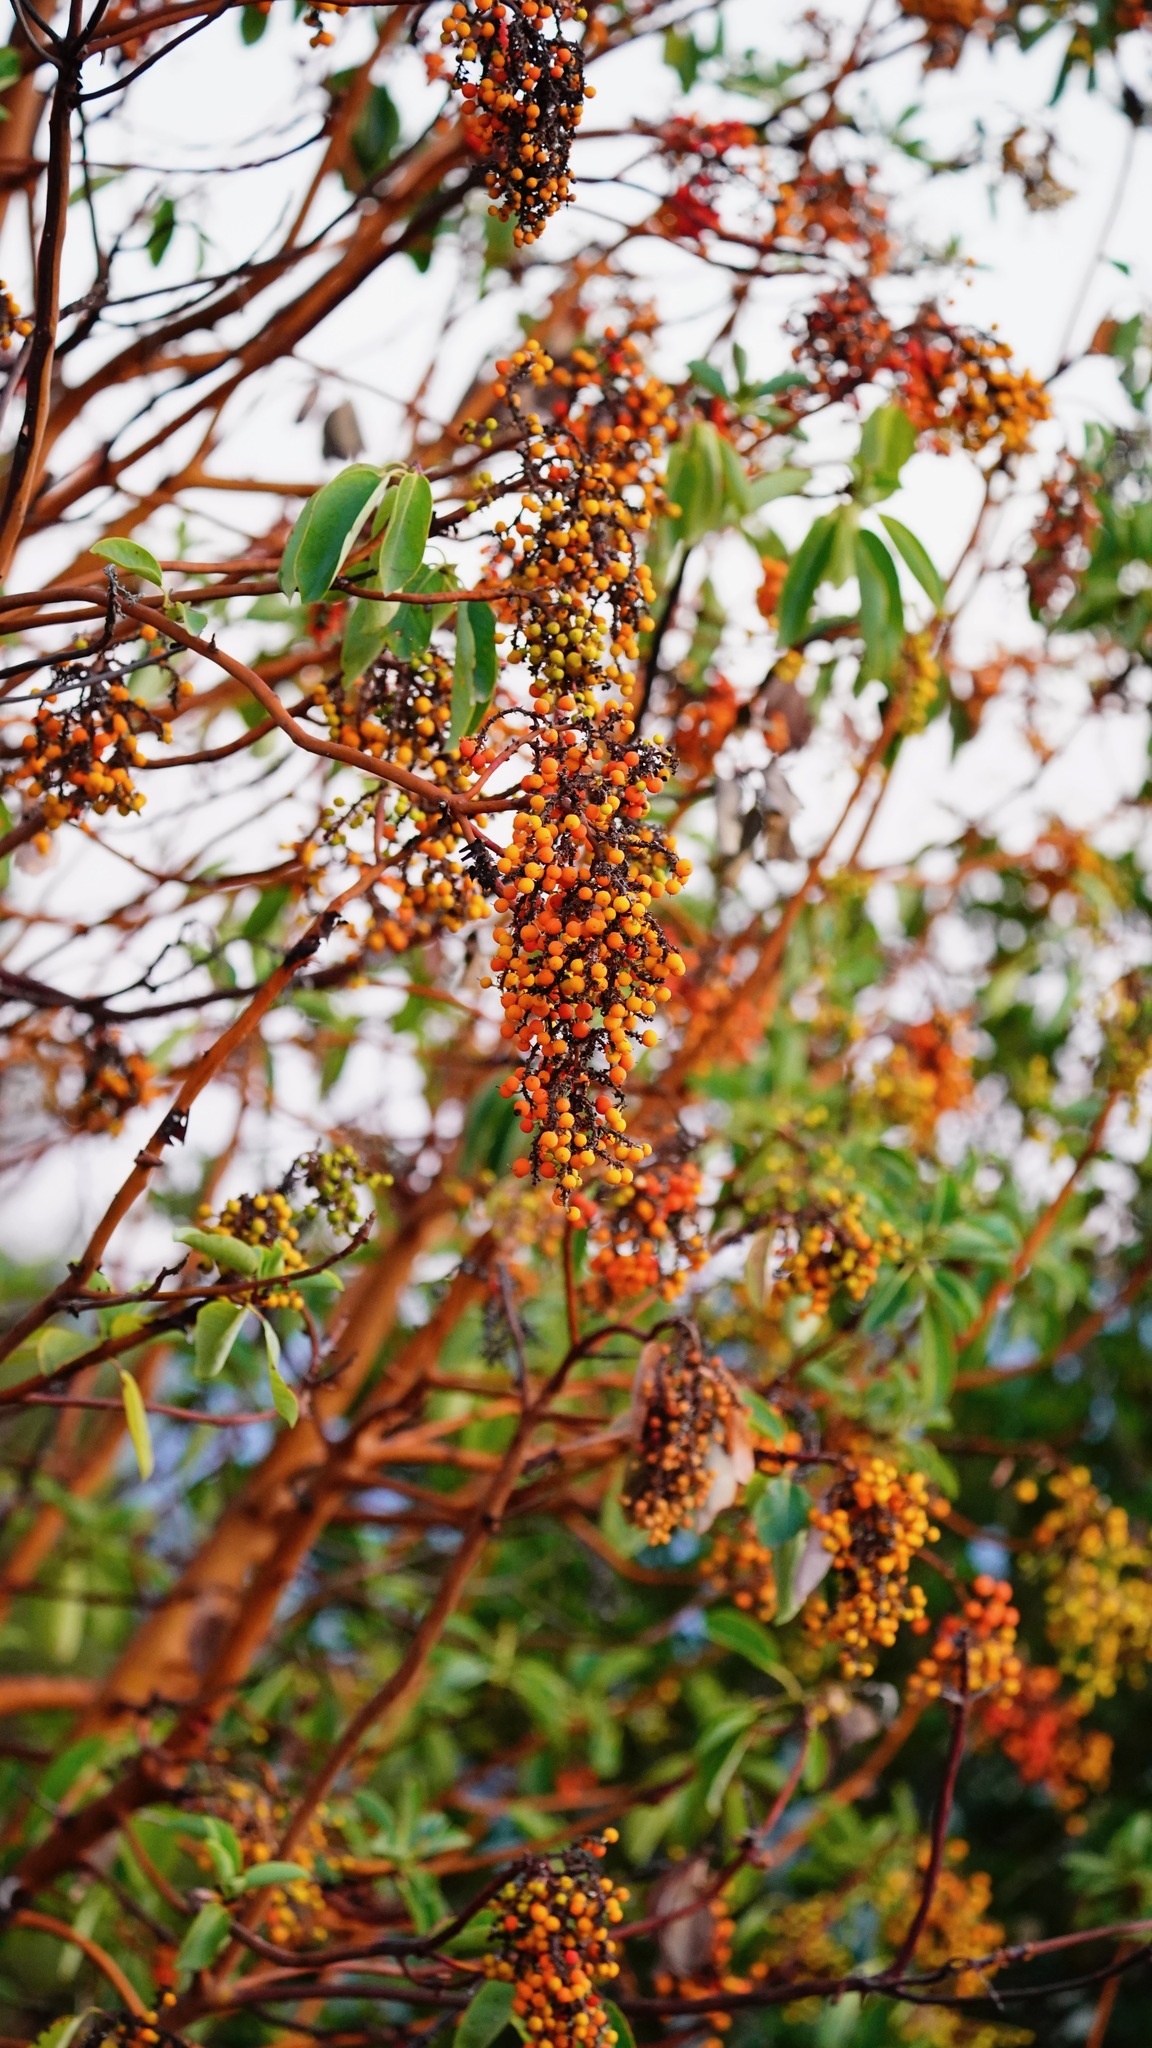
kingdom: Plantae
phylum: Tracheophyta
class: Magnoliopsida
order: Ericales
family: Ericaceae
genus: Arbutus
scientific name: Arbutus menziesii
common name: Pacific madrone
